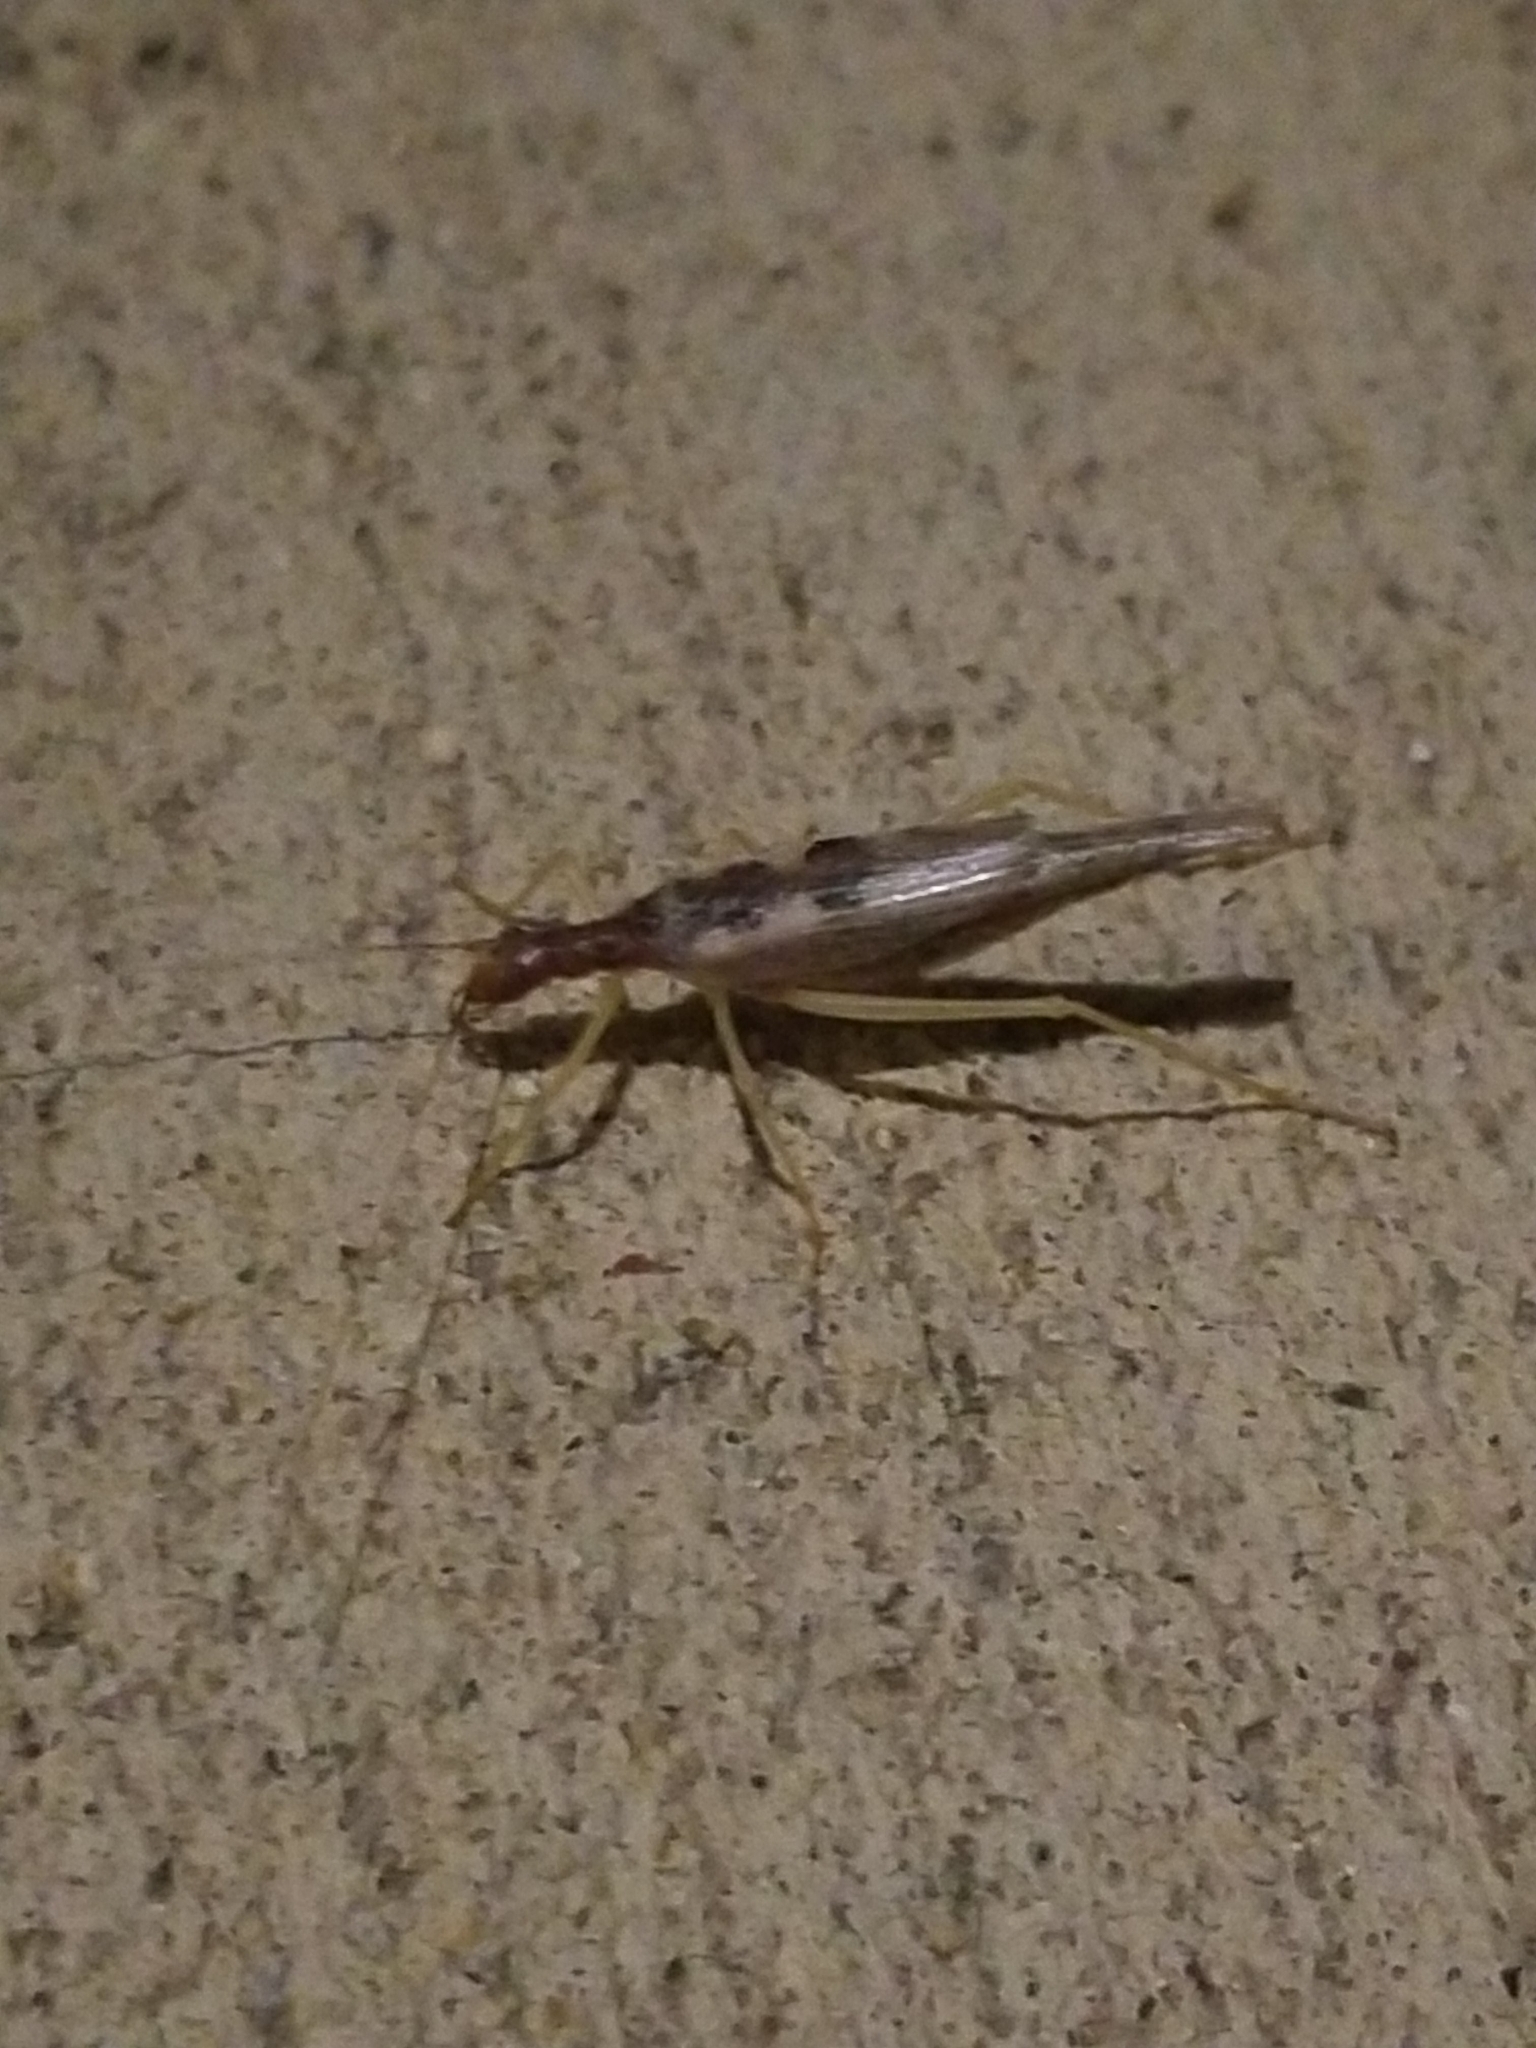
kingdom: Animalia
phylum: Arthropoda
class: Insecta
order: Orthoptera
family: Gryllidae
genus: Neoxabea
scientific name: Neoxabea bipunctata
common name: Two-spotted tree cricket
